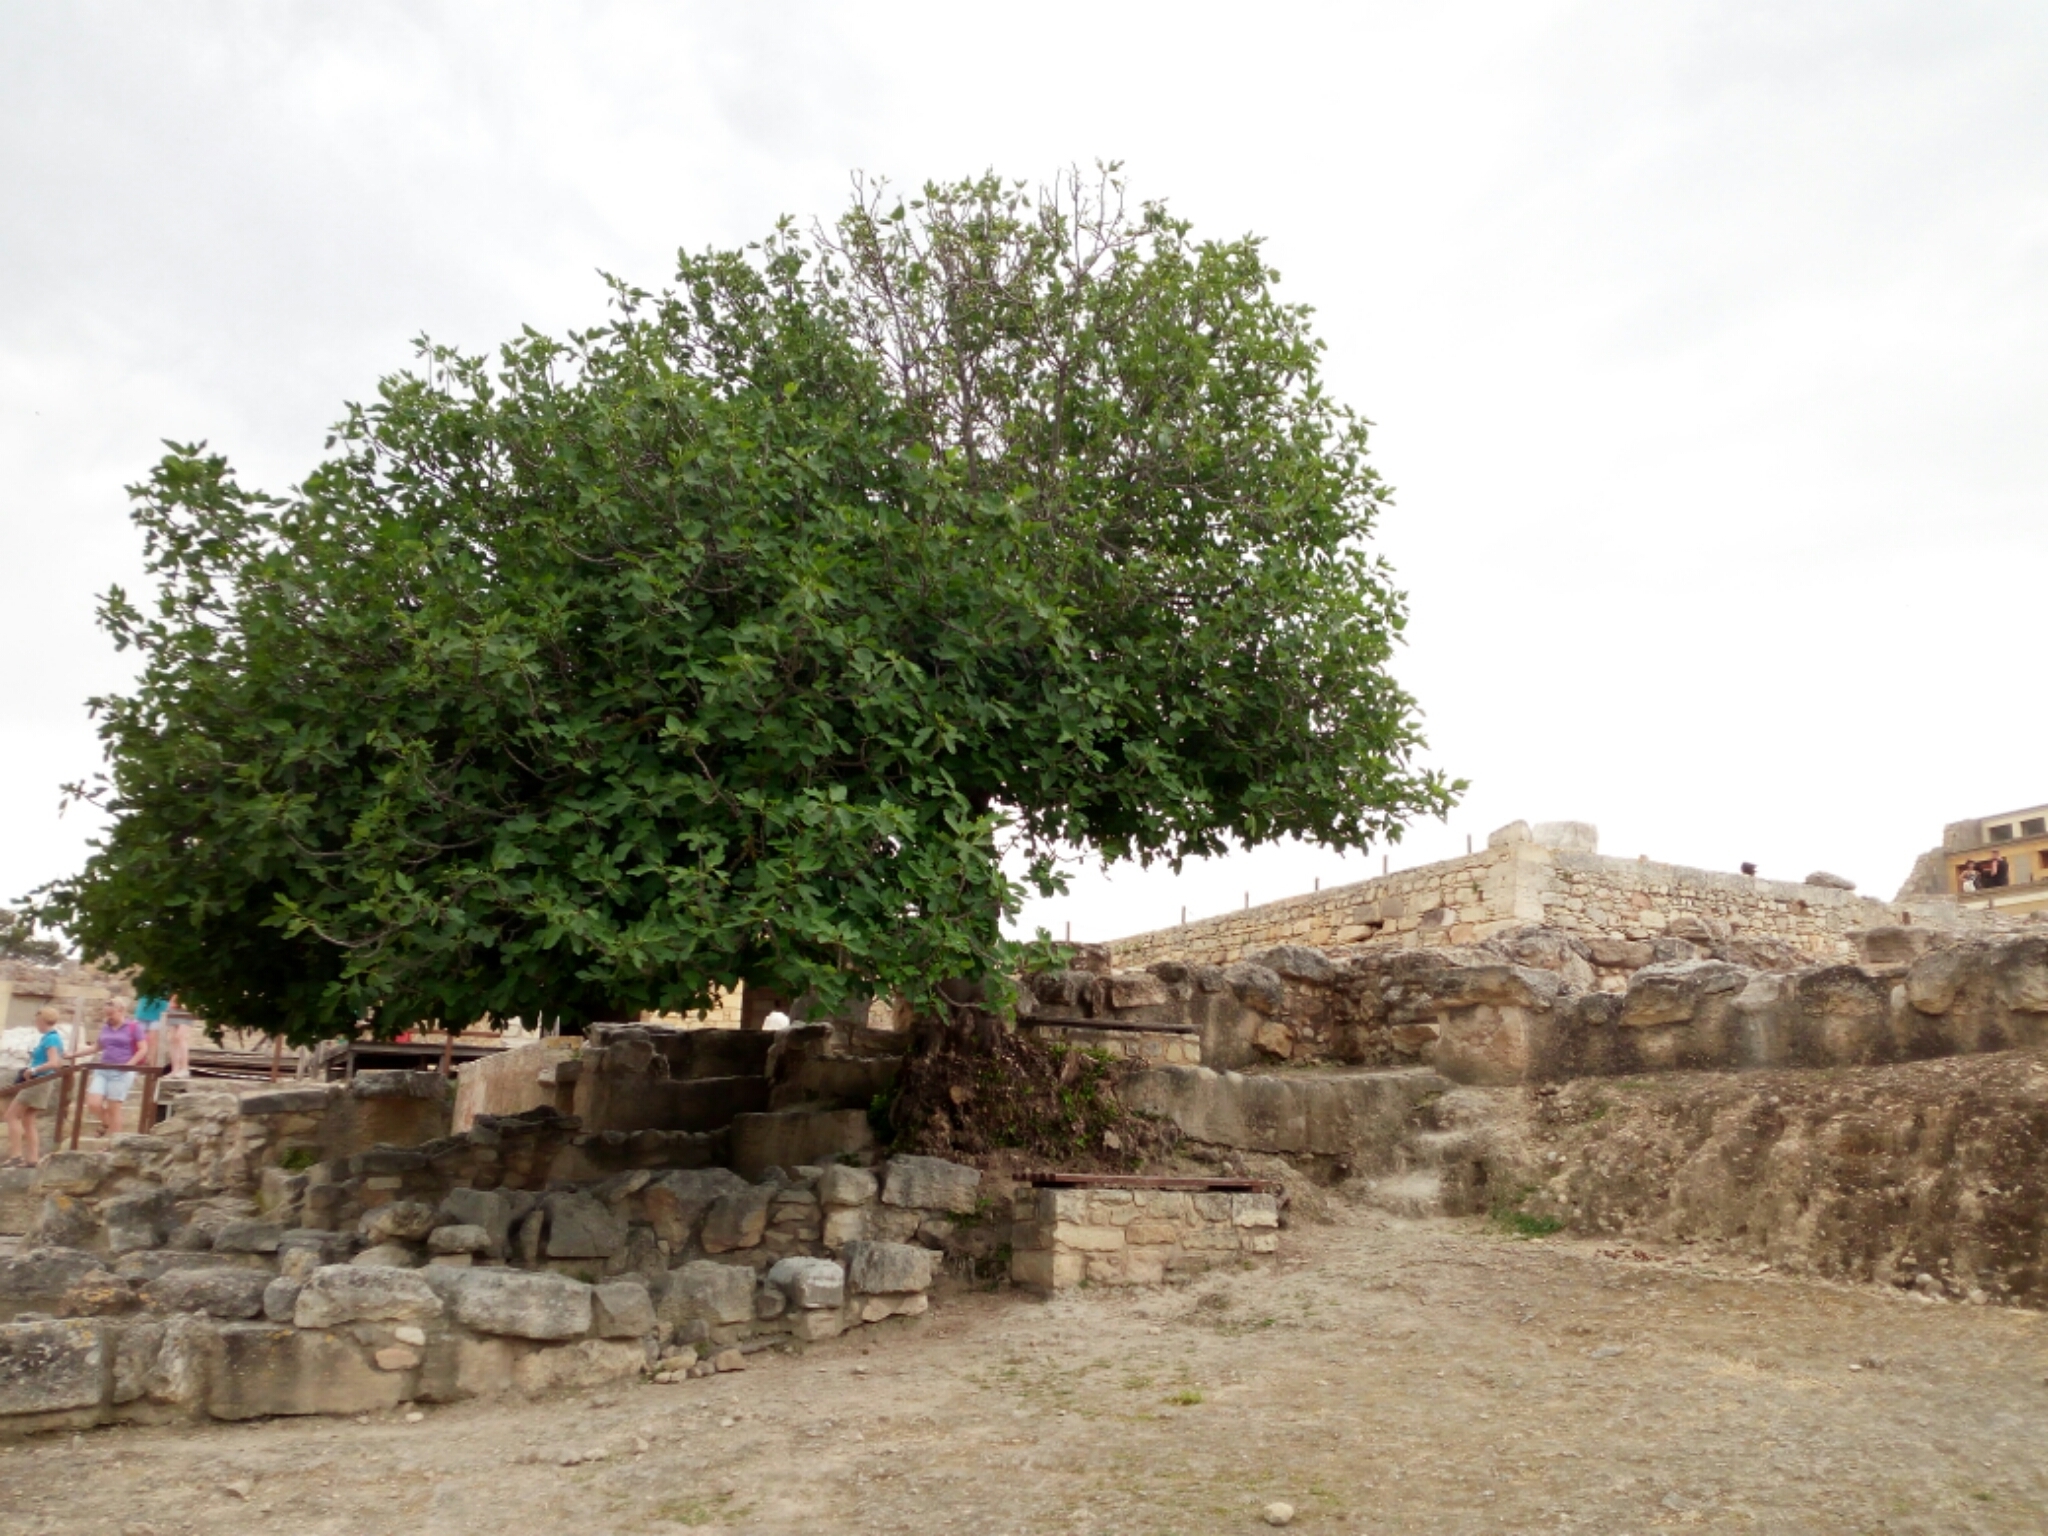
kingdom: Plantae
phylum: Tracheophyta
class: Magnoliopsida
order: Rosales
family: Moraceae
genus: Ficus
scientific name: Ficus carica
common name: Fig
